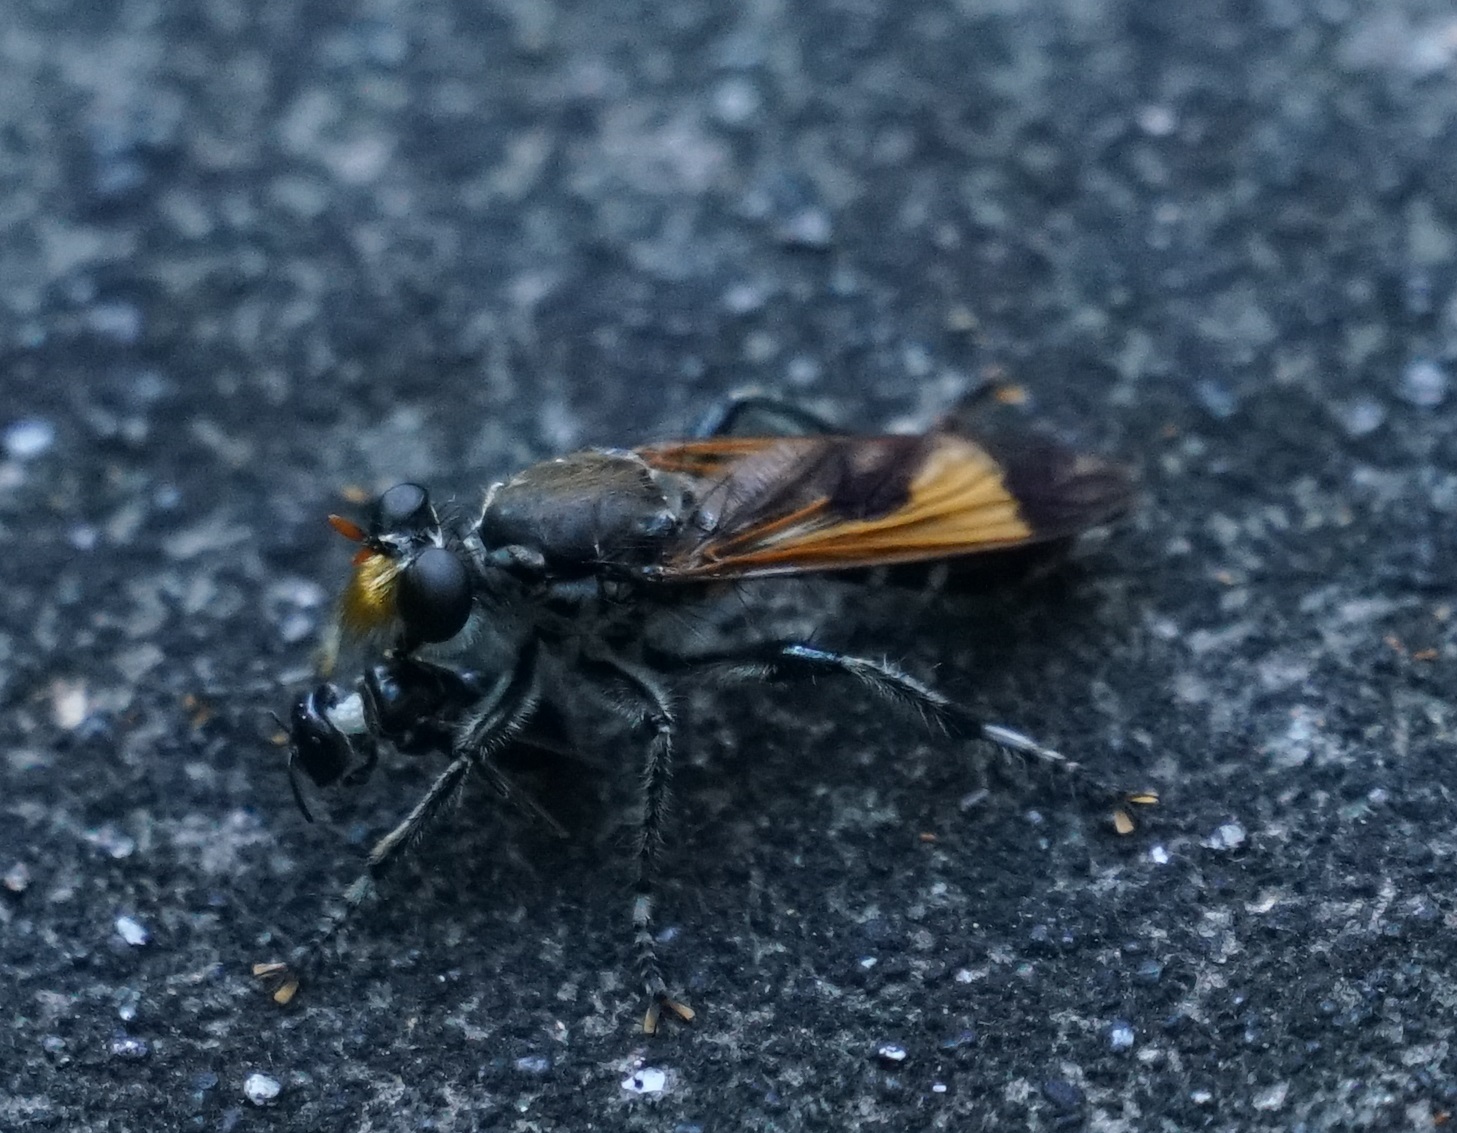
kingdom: Animalia
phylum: Arthropoda
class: Insecta
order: Hymenoptera
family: Apidae
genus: Ceratina
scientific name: Ceratina australensis
